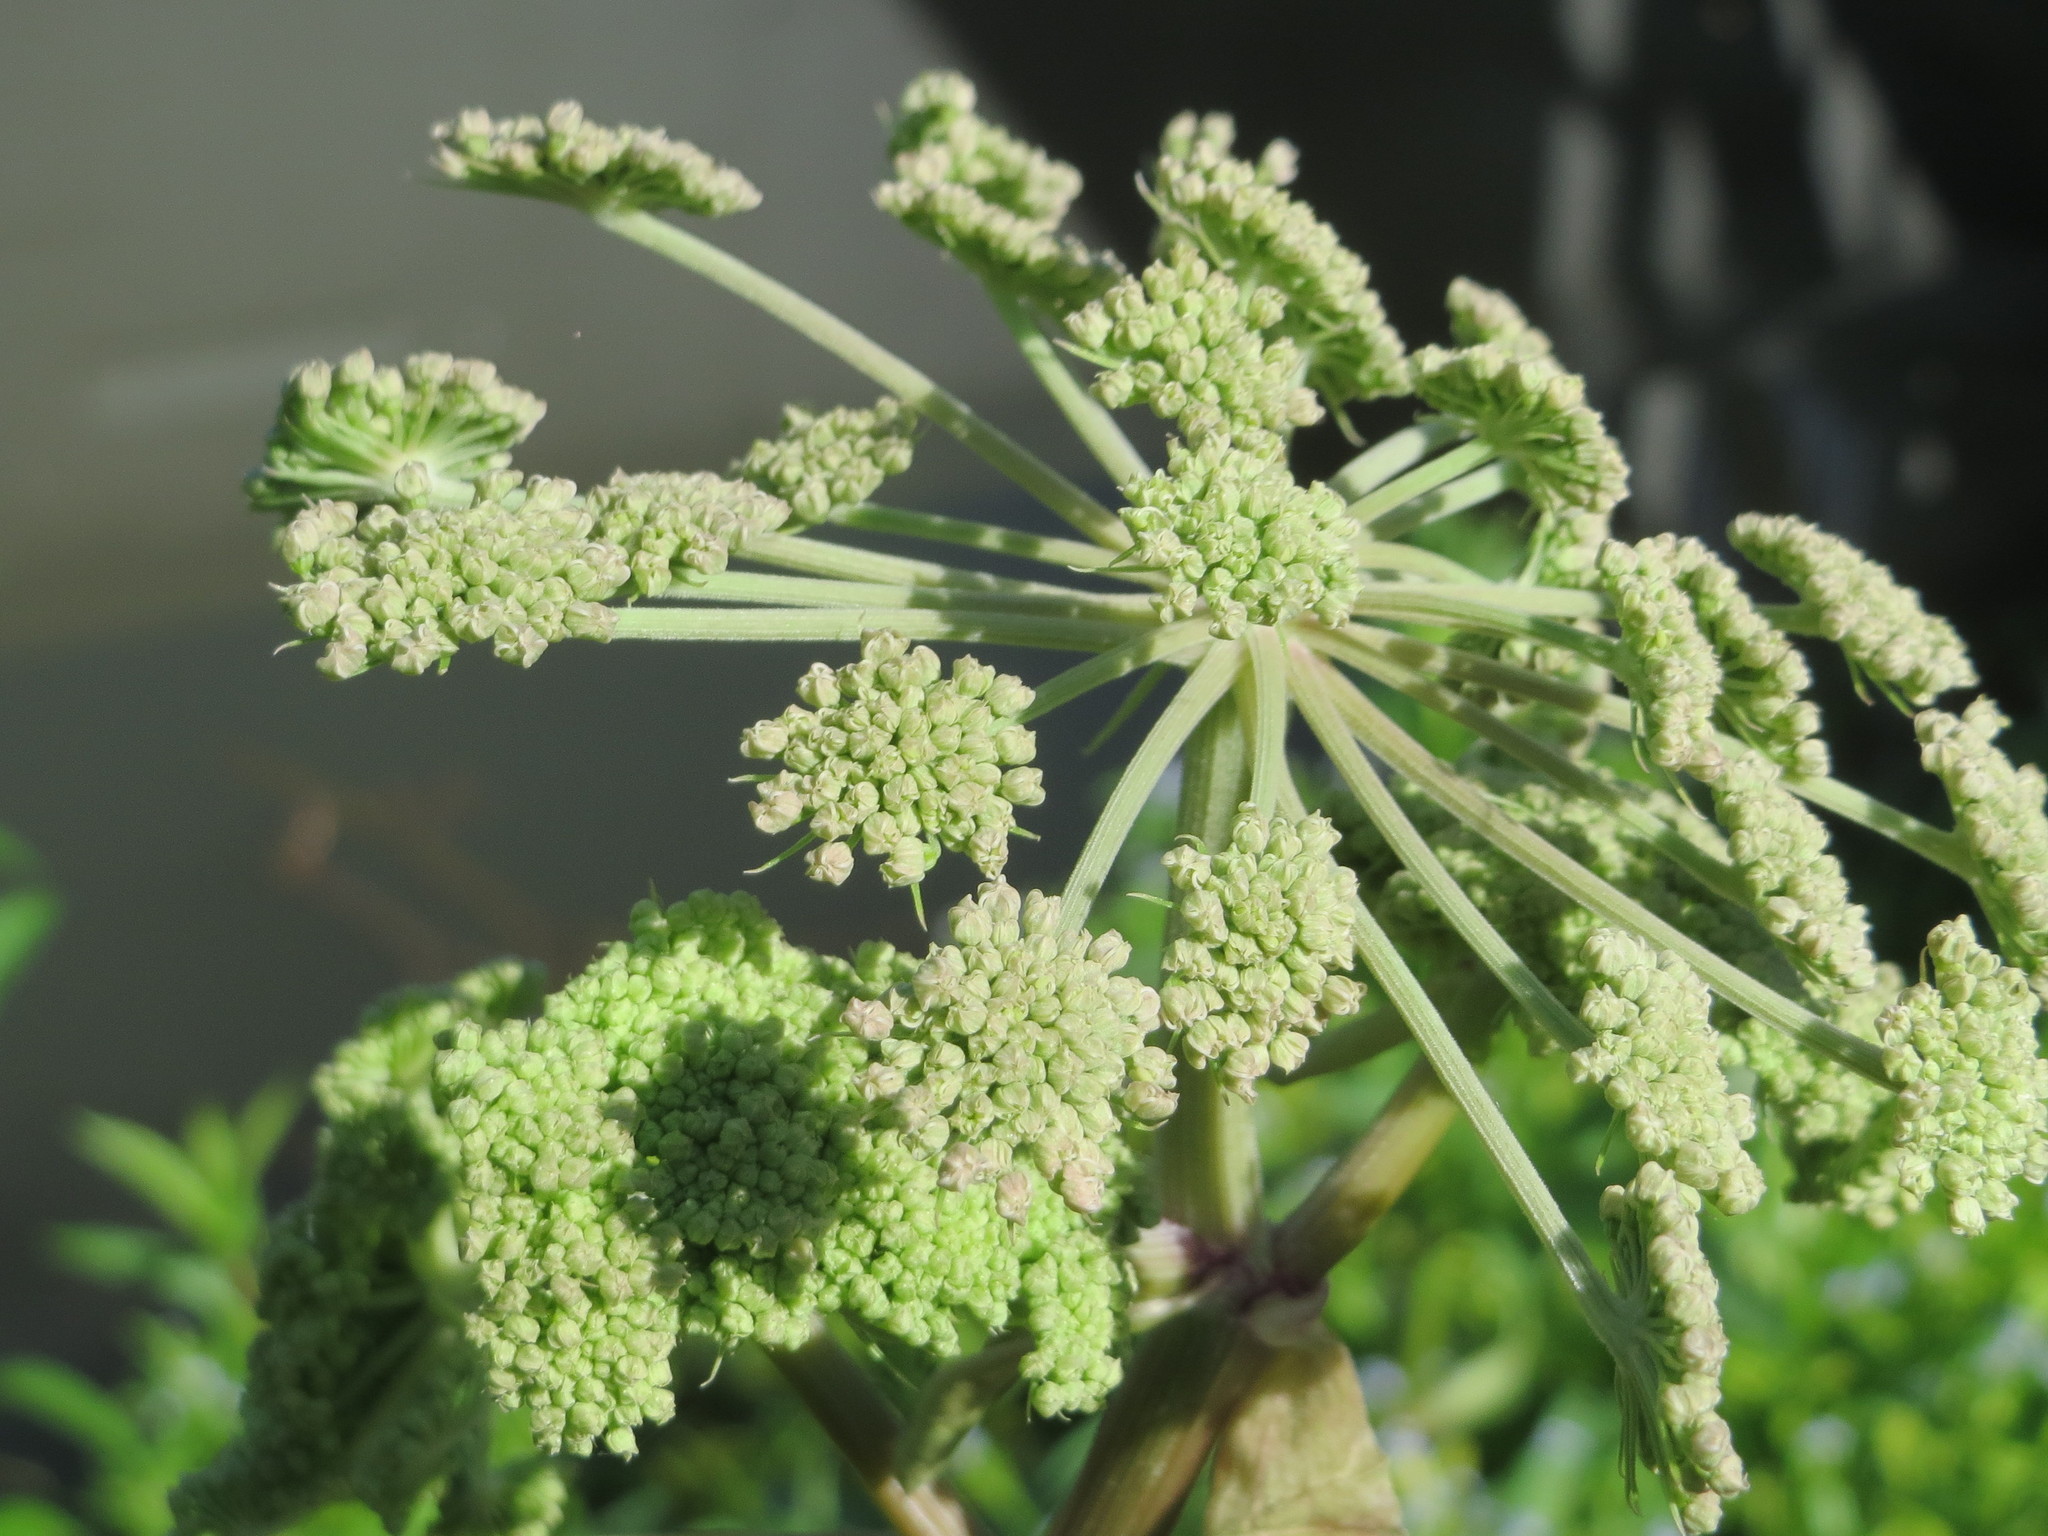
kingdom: Plantae
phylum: Tracheophyta
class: Magnoliopsida
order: Apiales
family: Apiaceae
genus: Angelica
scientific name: Angelica sylvestris
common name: Wild angelica
